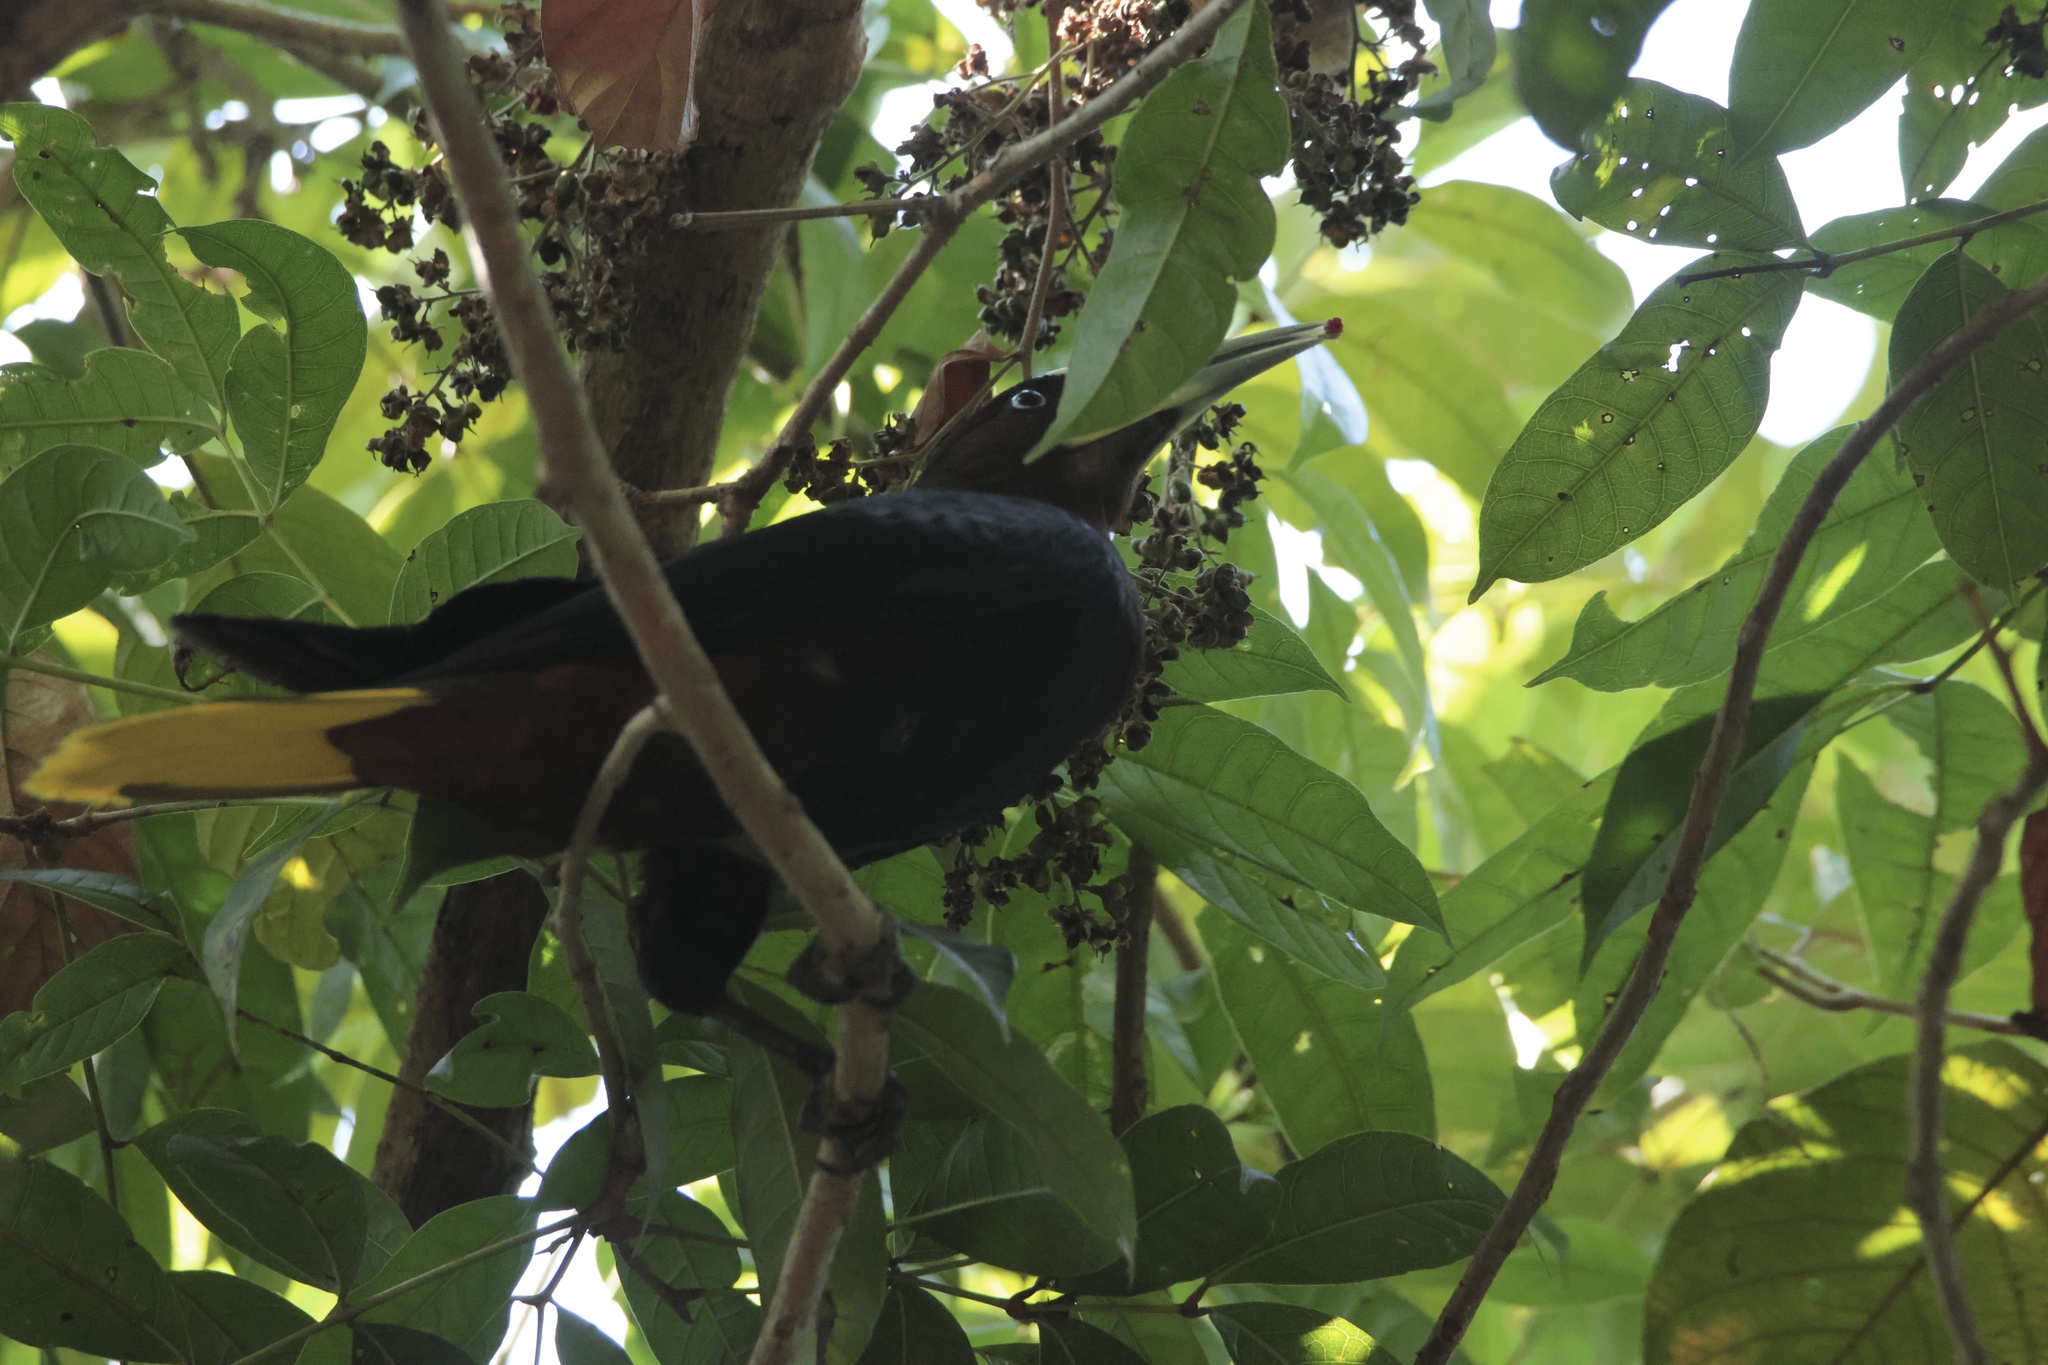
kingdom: Animalia
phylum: Chordata
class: Aves
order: Passeriformes
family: Icteridae
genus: Psarocolius
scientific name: Psarocolius wagleri
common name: Chestnut-headed oropendola
